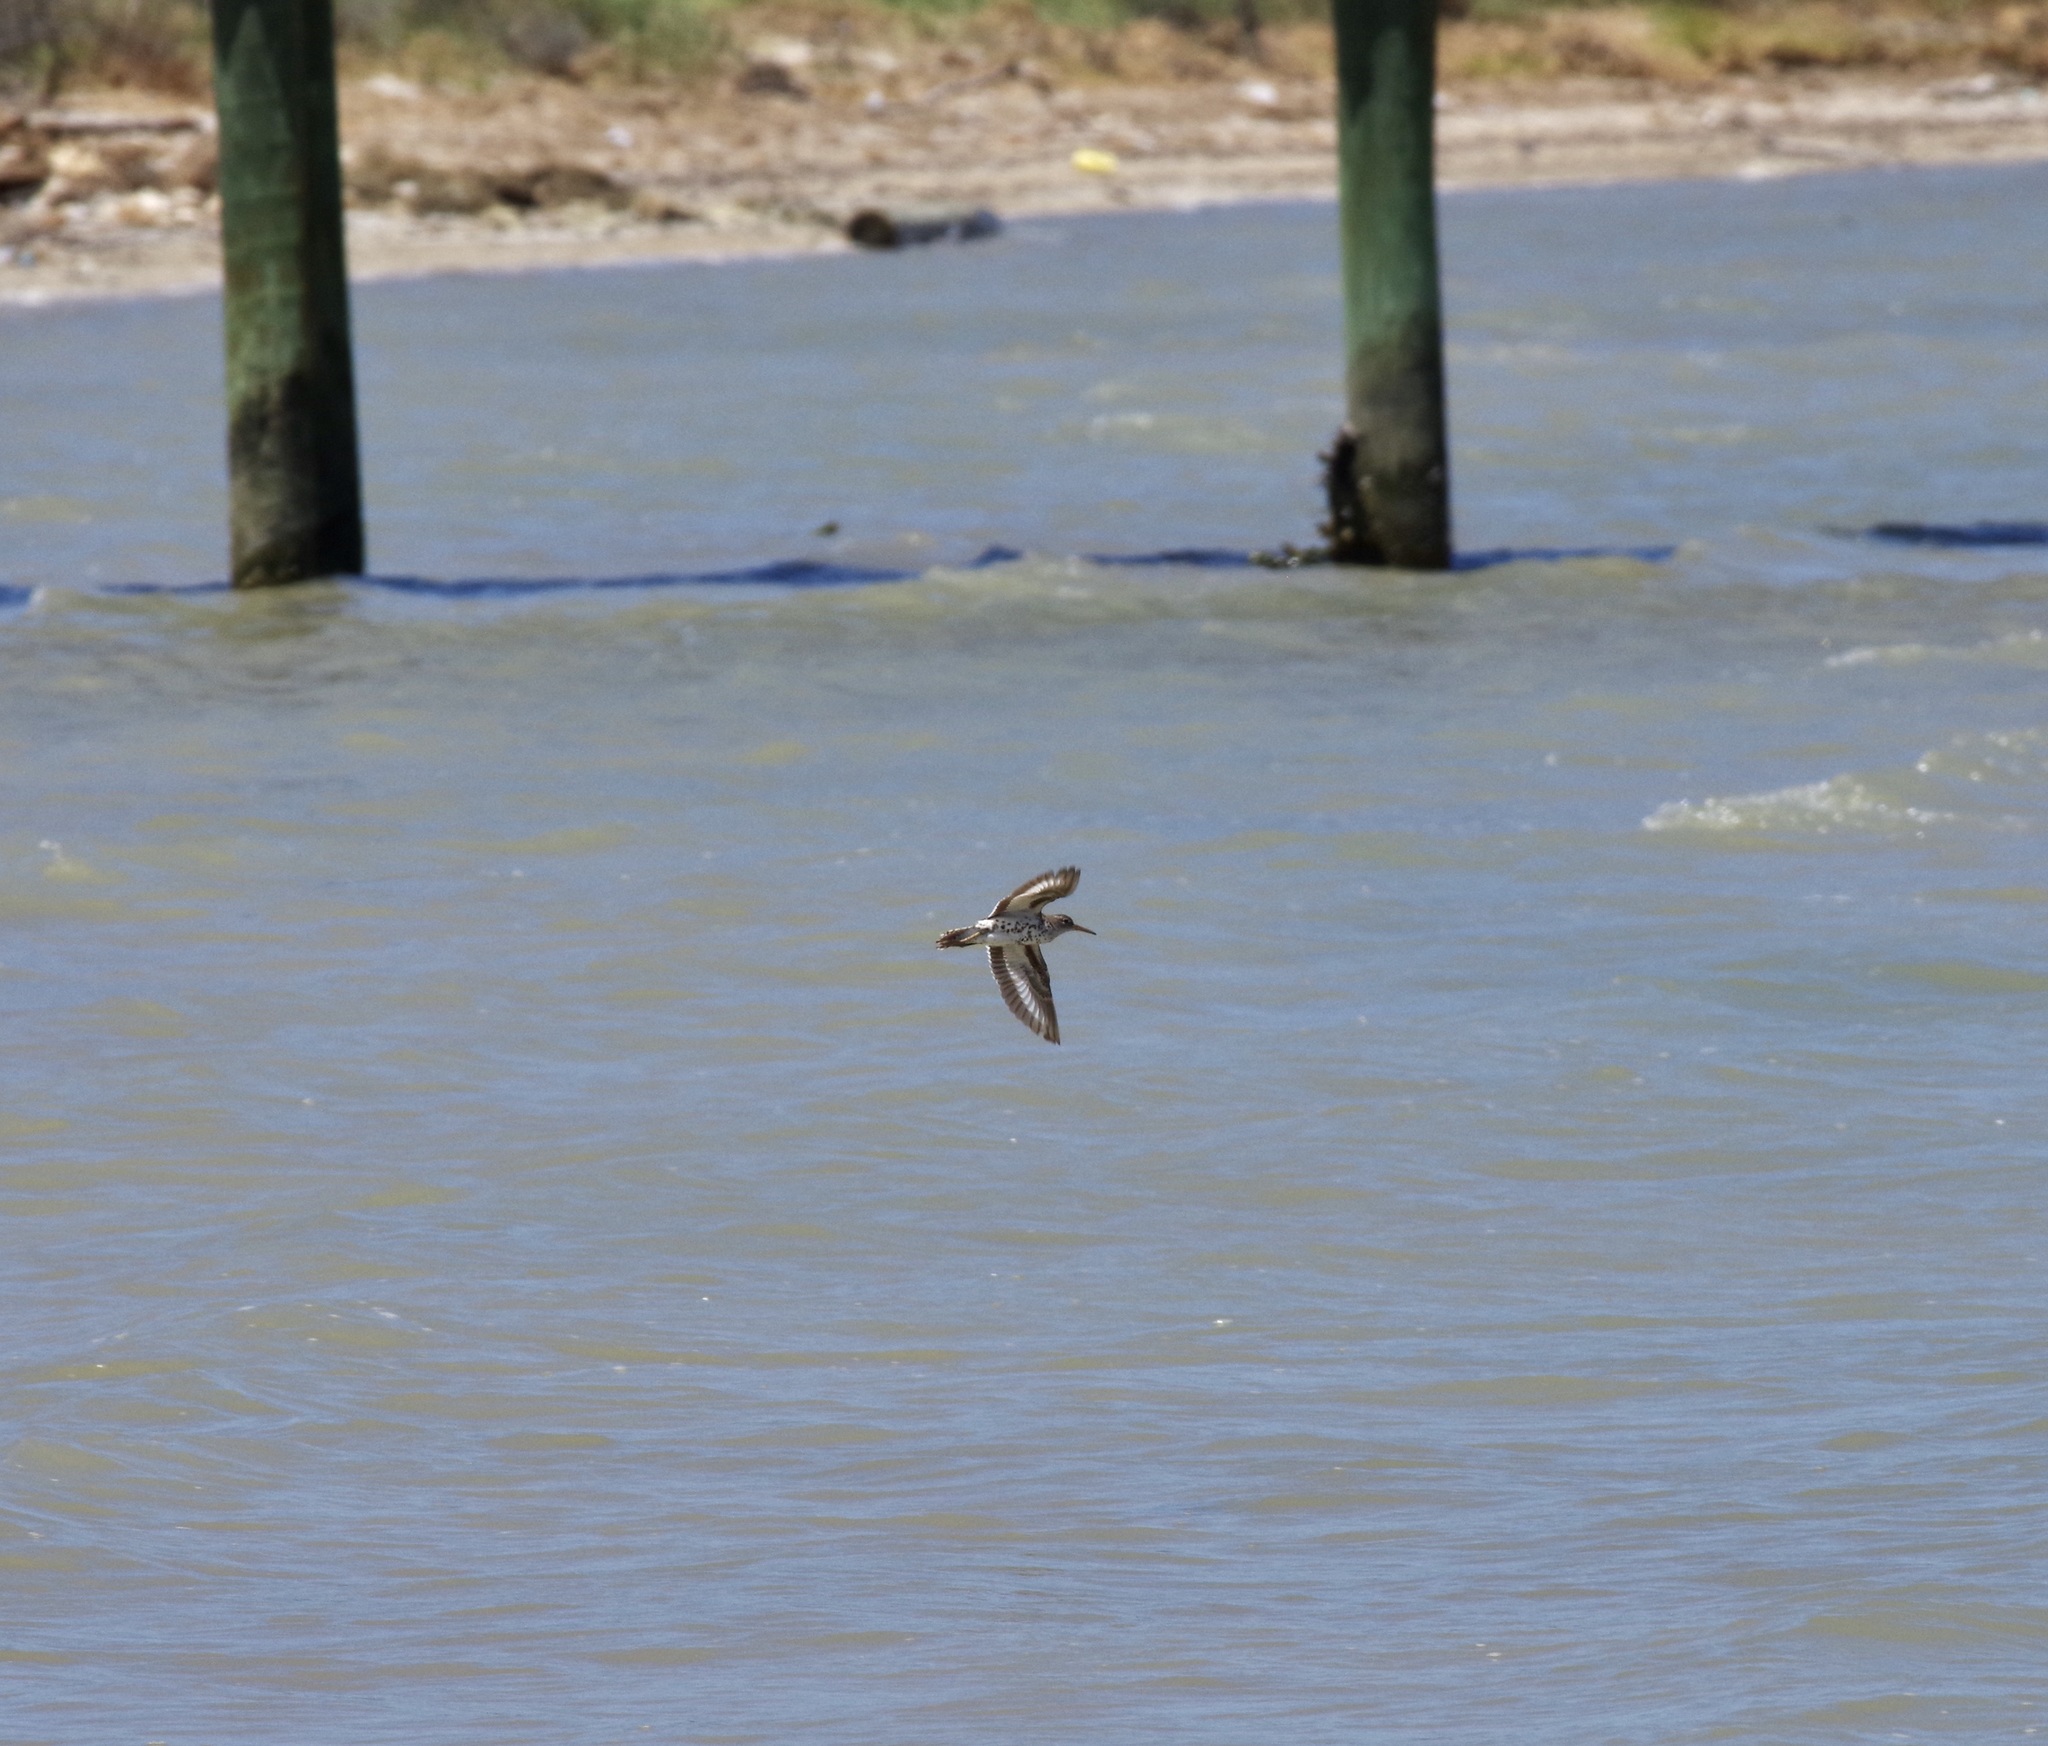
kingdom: Animalia
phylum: Chordata
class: Aves
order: Charadriiformes
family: Scolopacidae
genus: Actitis
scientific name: Actitis macularius
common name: Spotted sandpiper
